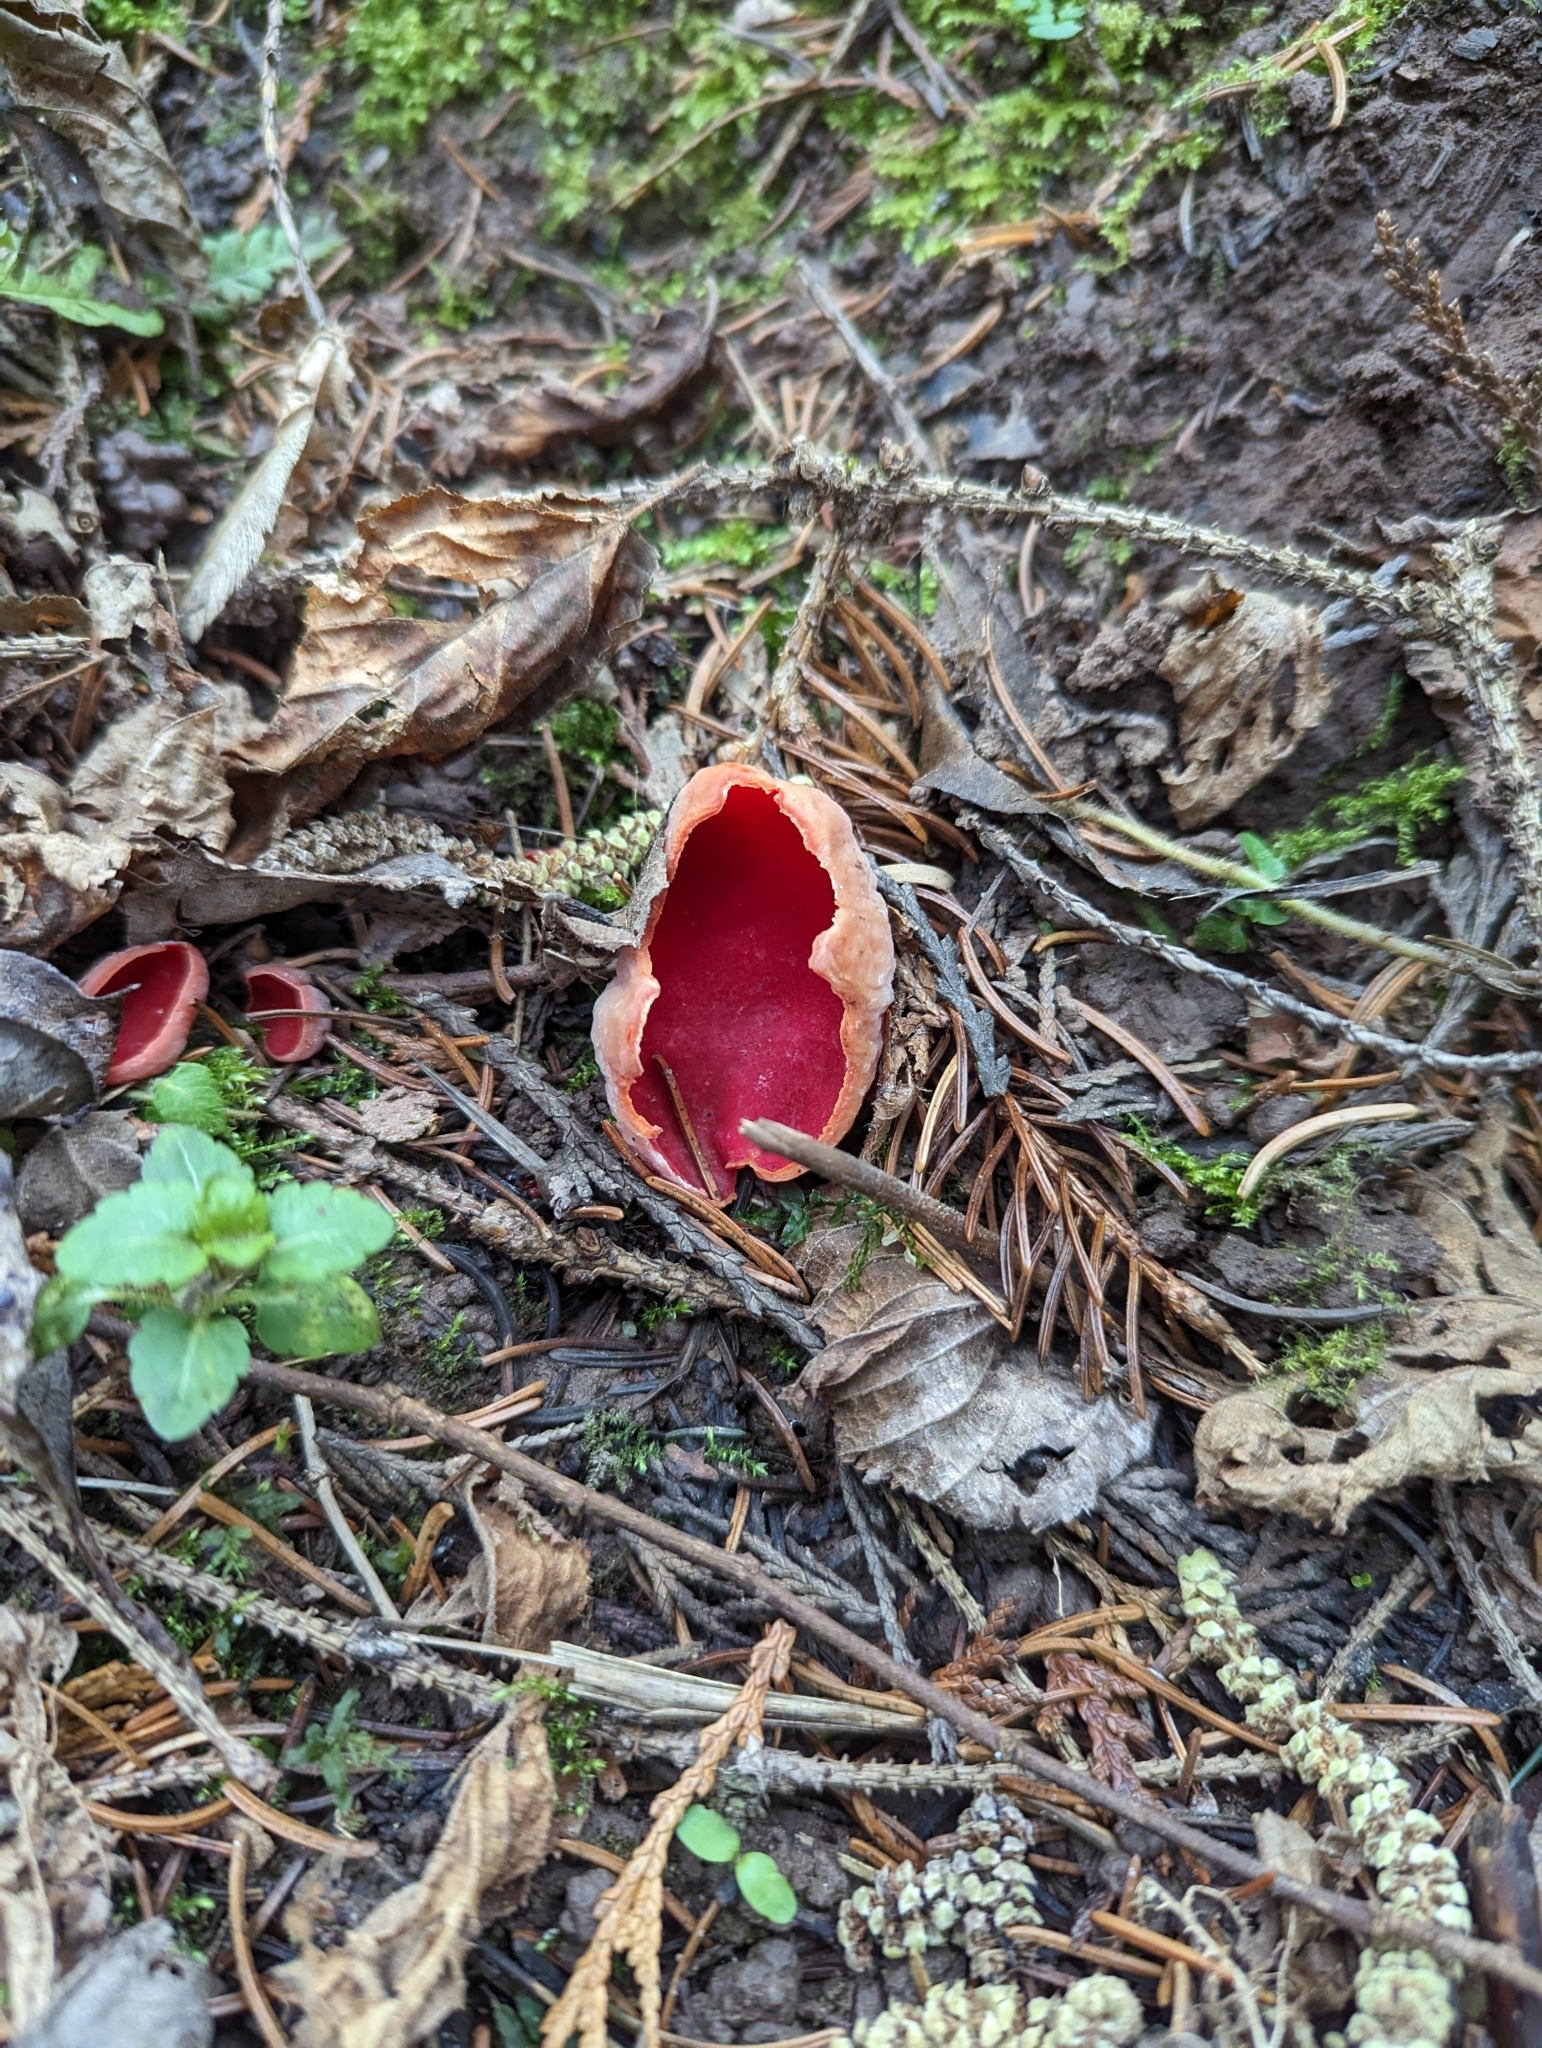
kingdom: Fungi
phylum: Ascomycota
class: Pezizomycetes
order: Pezizales
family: Sarcoscyphaceae
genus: Sarcoscypha
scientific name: Sarcoscypha
